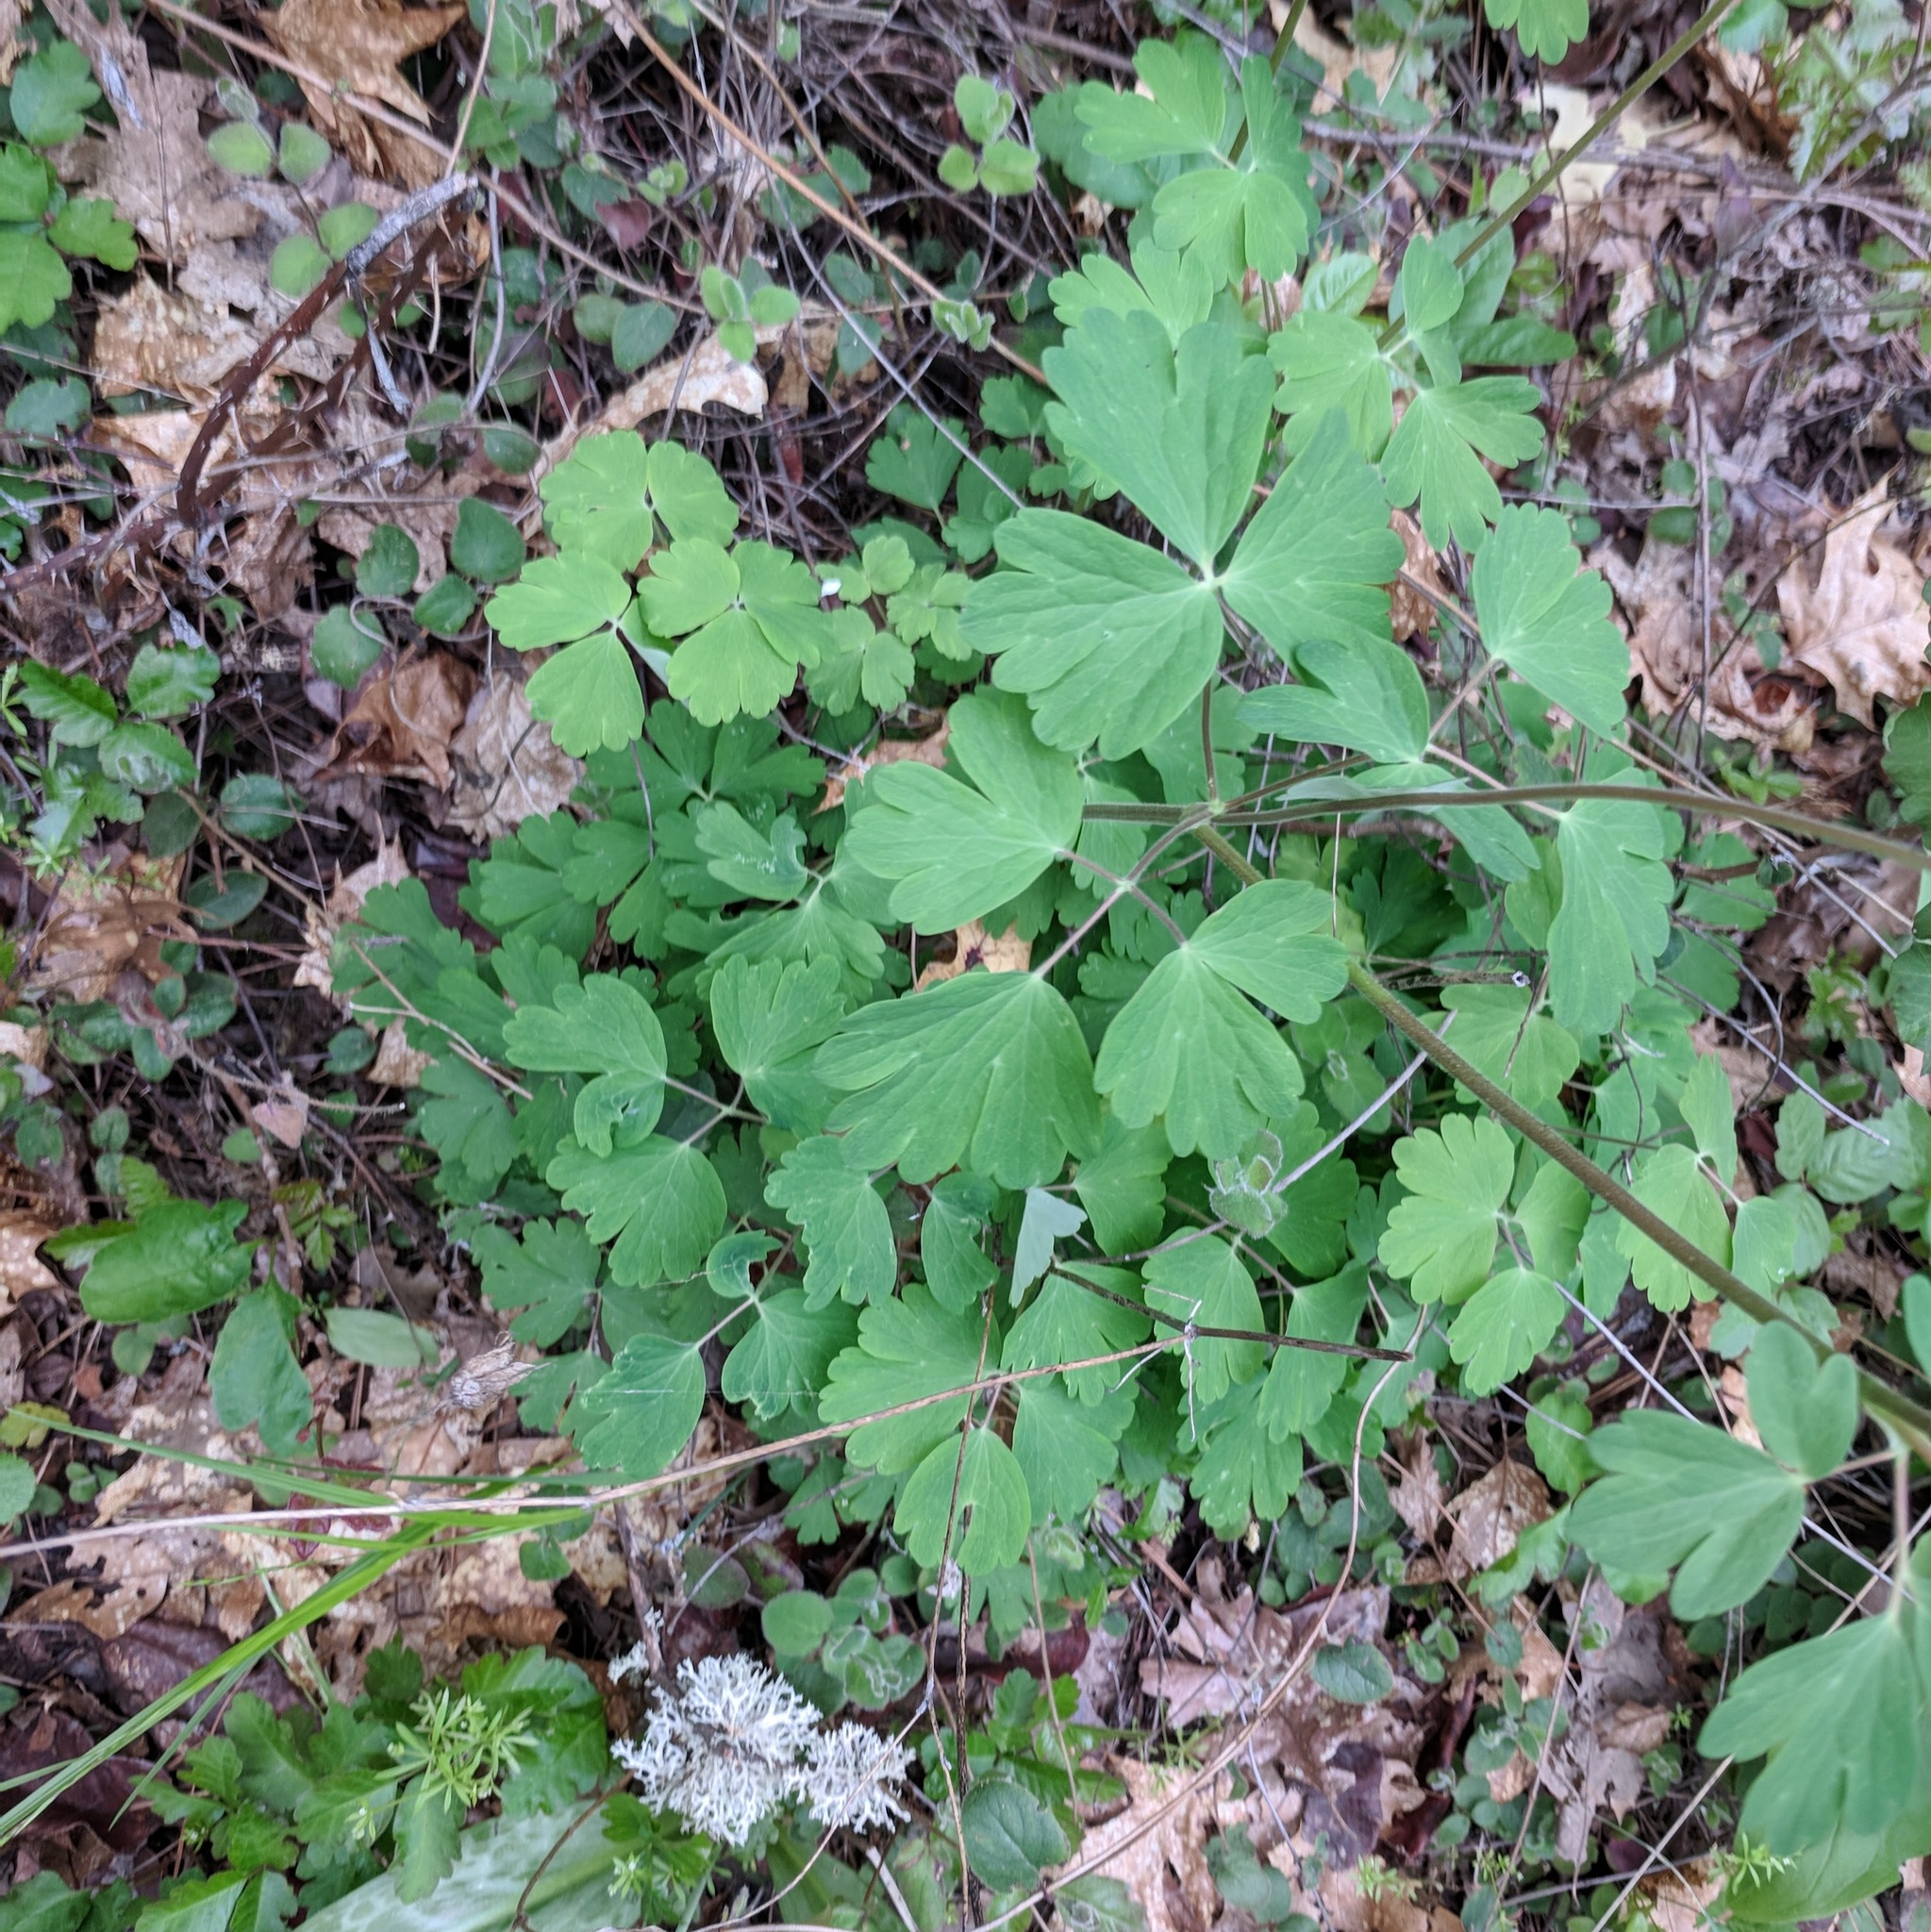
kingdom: Plantae
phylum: Tracheophyta
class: Magnoliopsida
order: Ranunculales
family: Ranunculaceae
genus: Aquilegia
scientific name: Aquilegia formosa
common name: Sitka columbine
